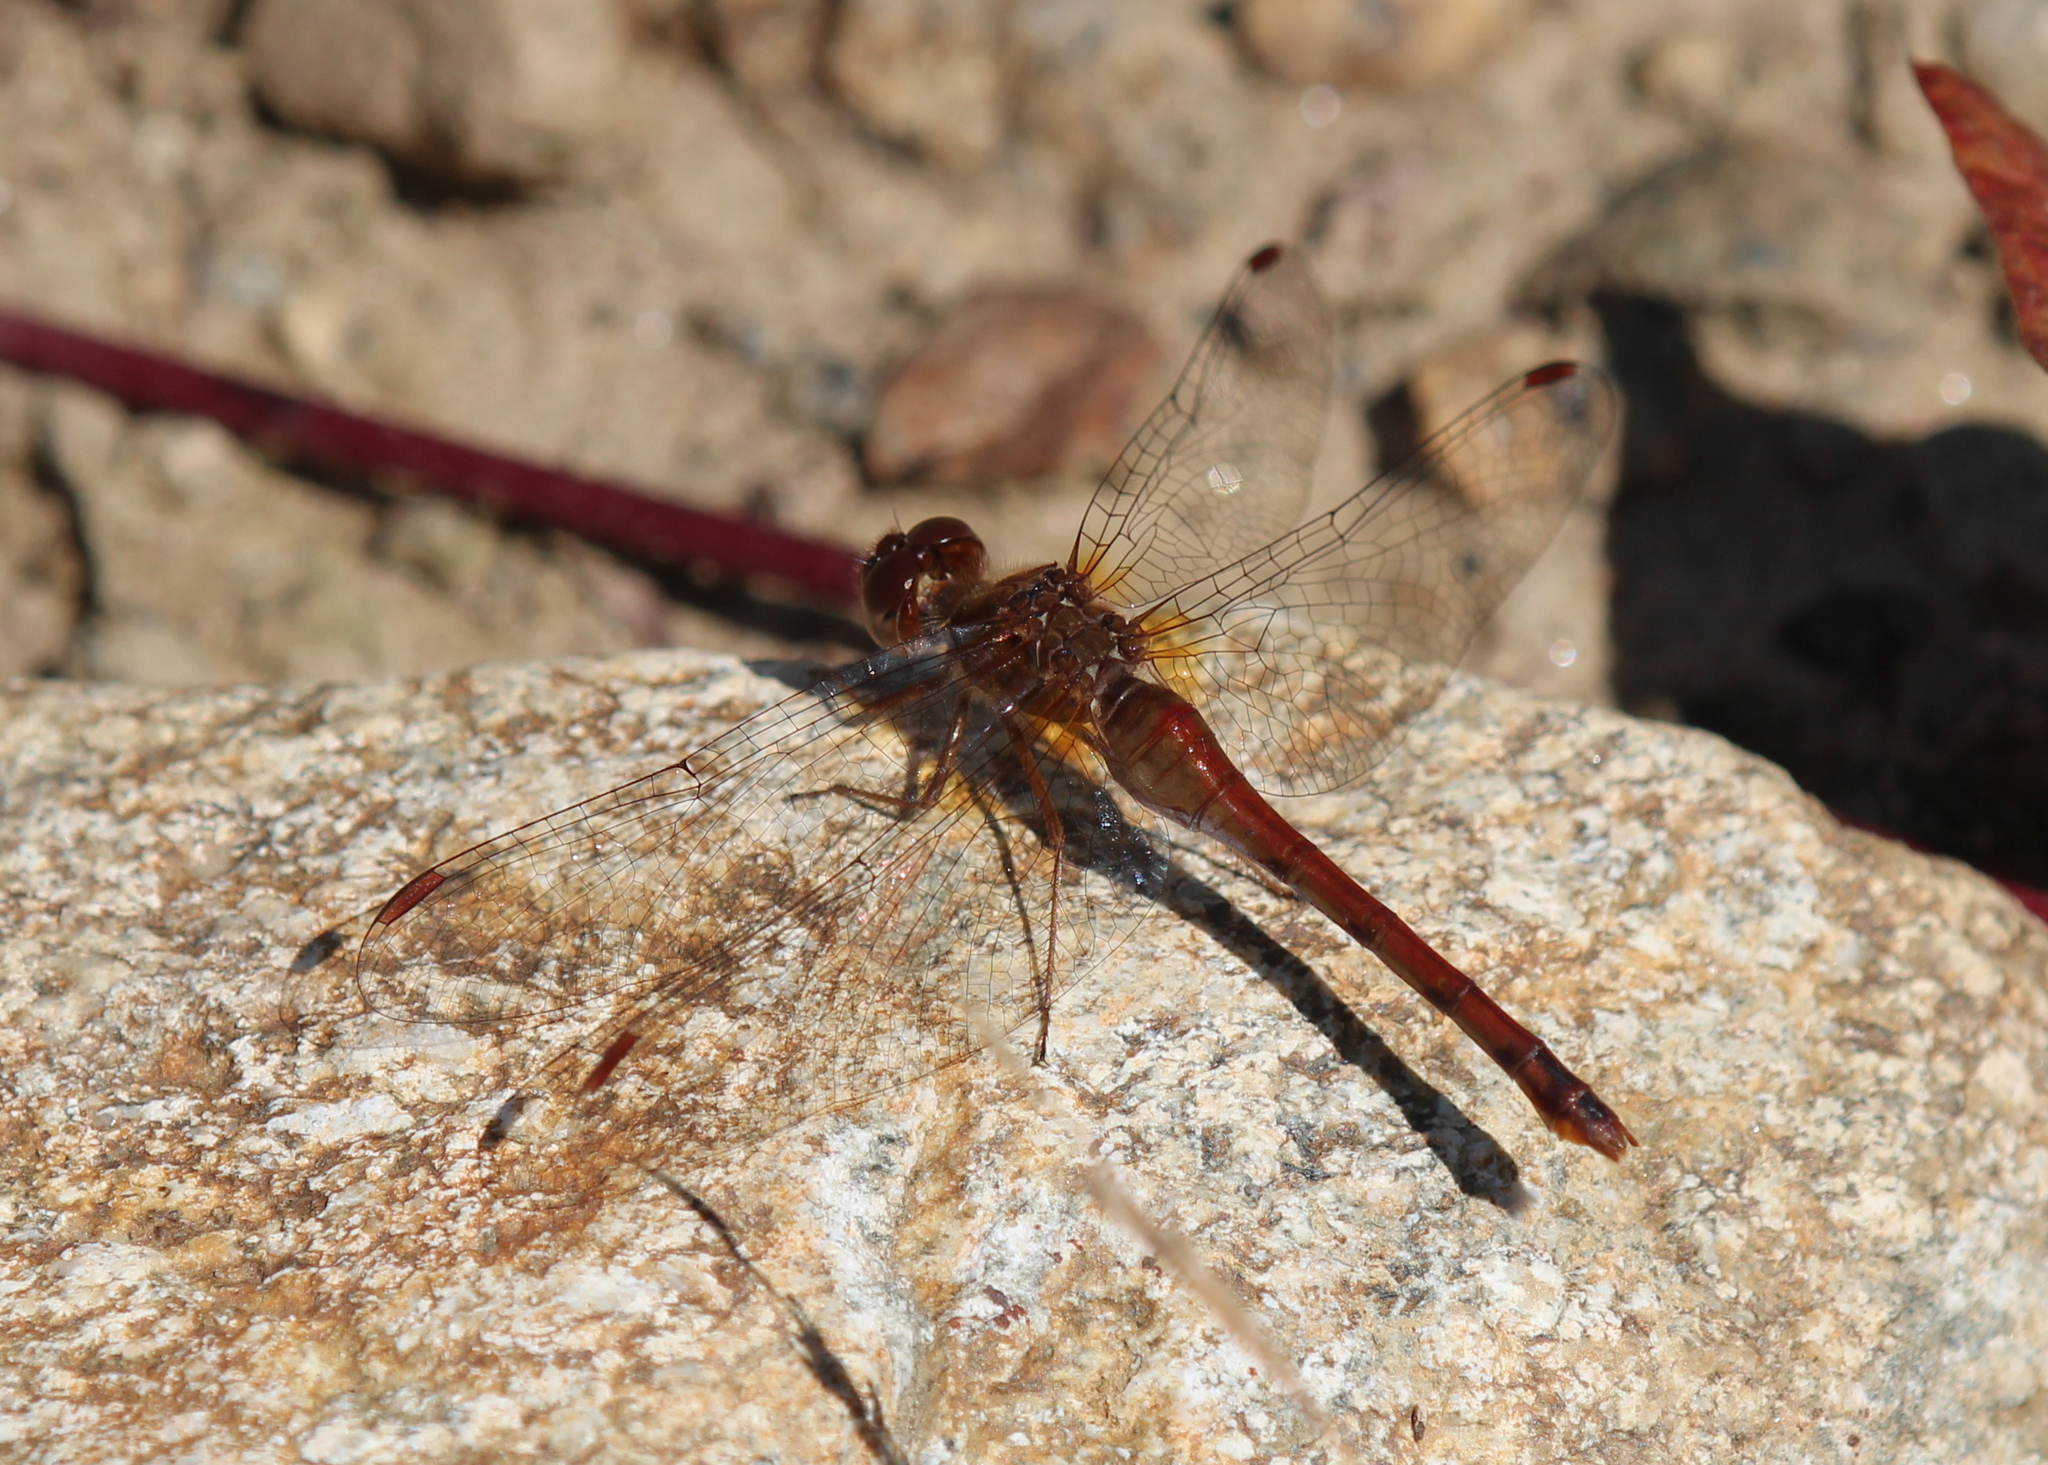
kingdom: Animalia
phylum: Arthropoda
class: Insecta
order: Odonata
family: Libellulidae
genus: Sympetrum
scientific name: Sympetrum vicinum
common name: Autumn meadowhawk
